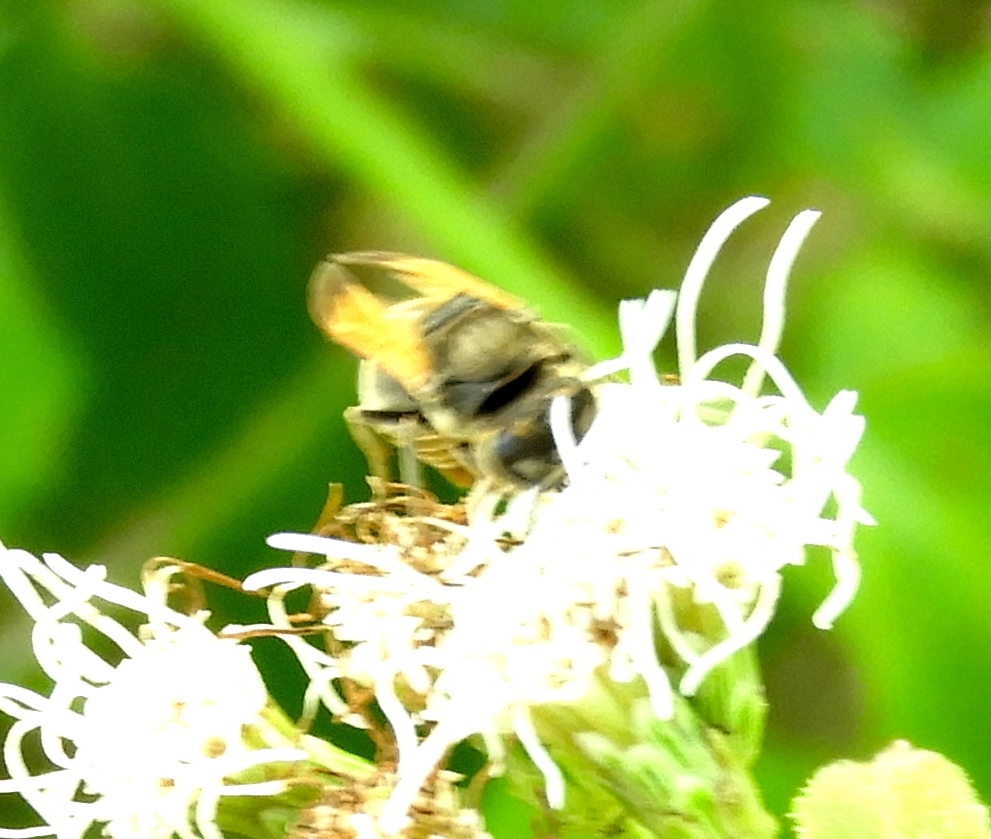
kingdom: Animalia
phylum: Arthropoda
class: Insecta
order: Hymenoptera
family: Vespidae
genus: Brachygastra
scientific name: Brachygastra mellifica
